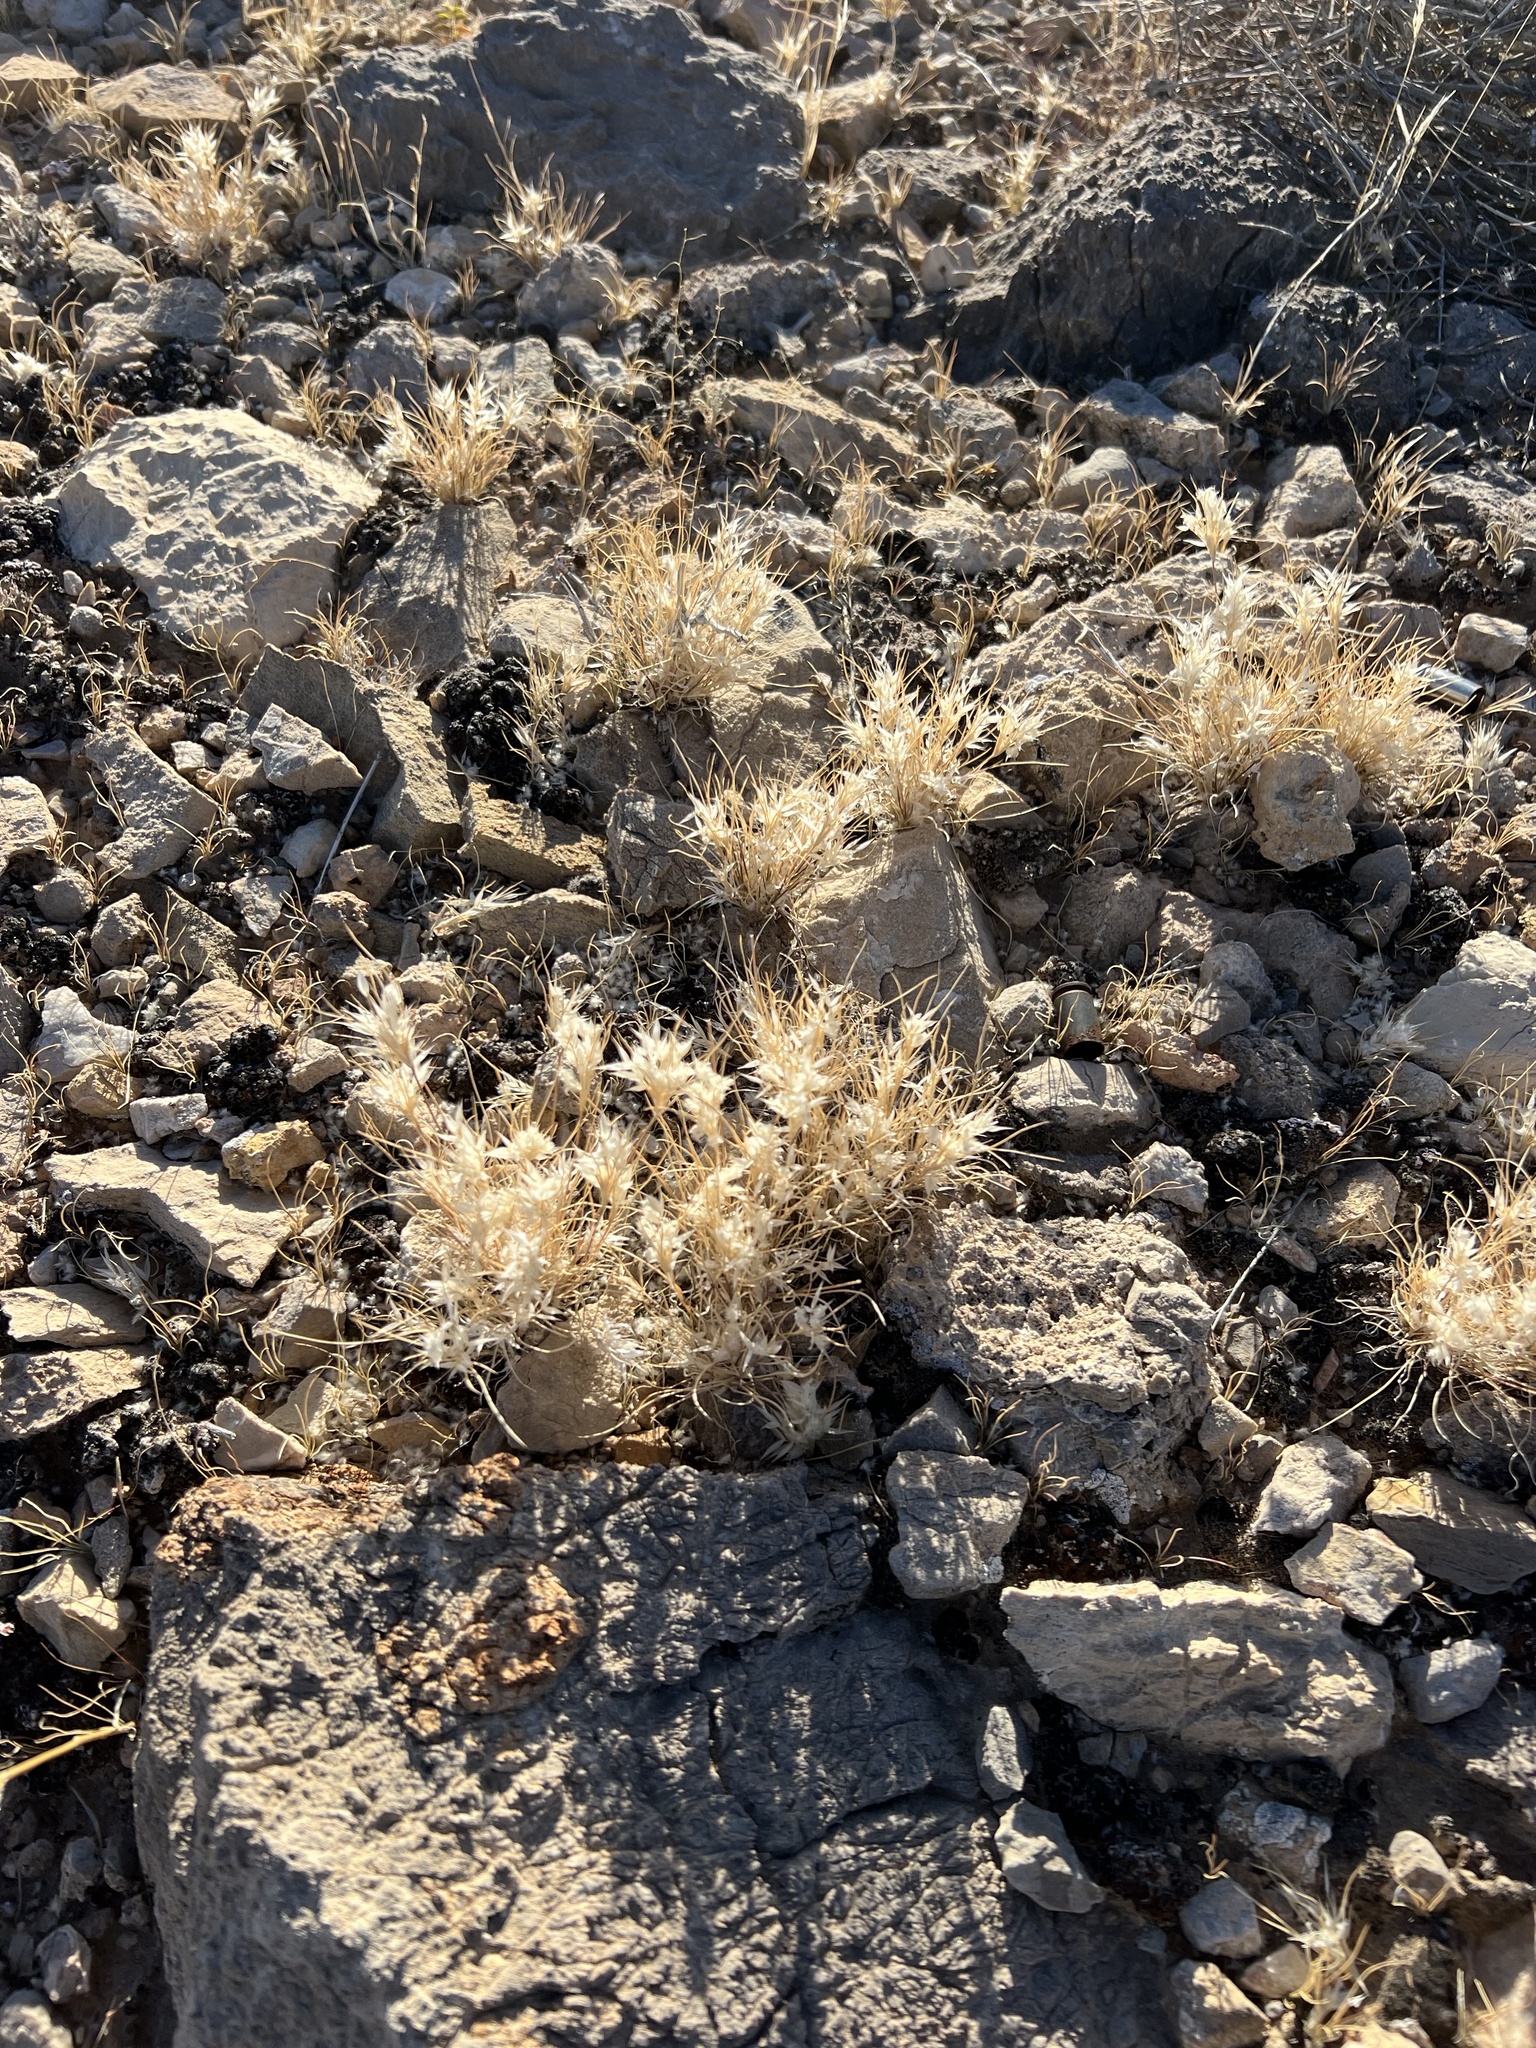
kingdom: Plantae
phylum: Tracheophyta
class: Liliopsida
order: Poales
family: Poaceae
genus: Dasyochloa
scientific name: Dasyochloa pulchella
